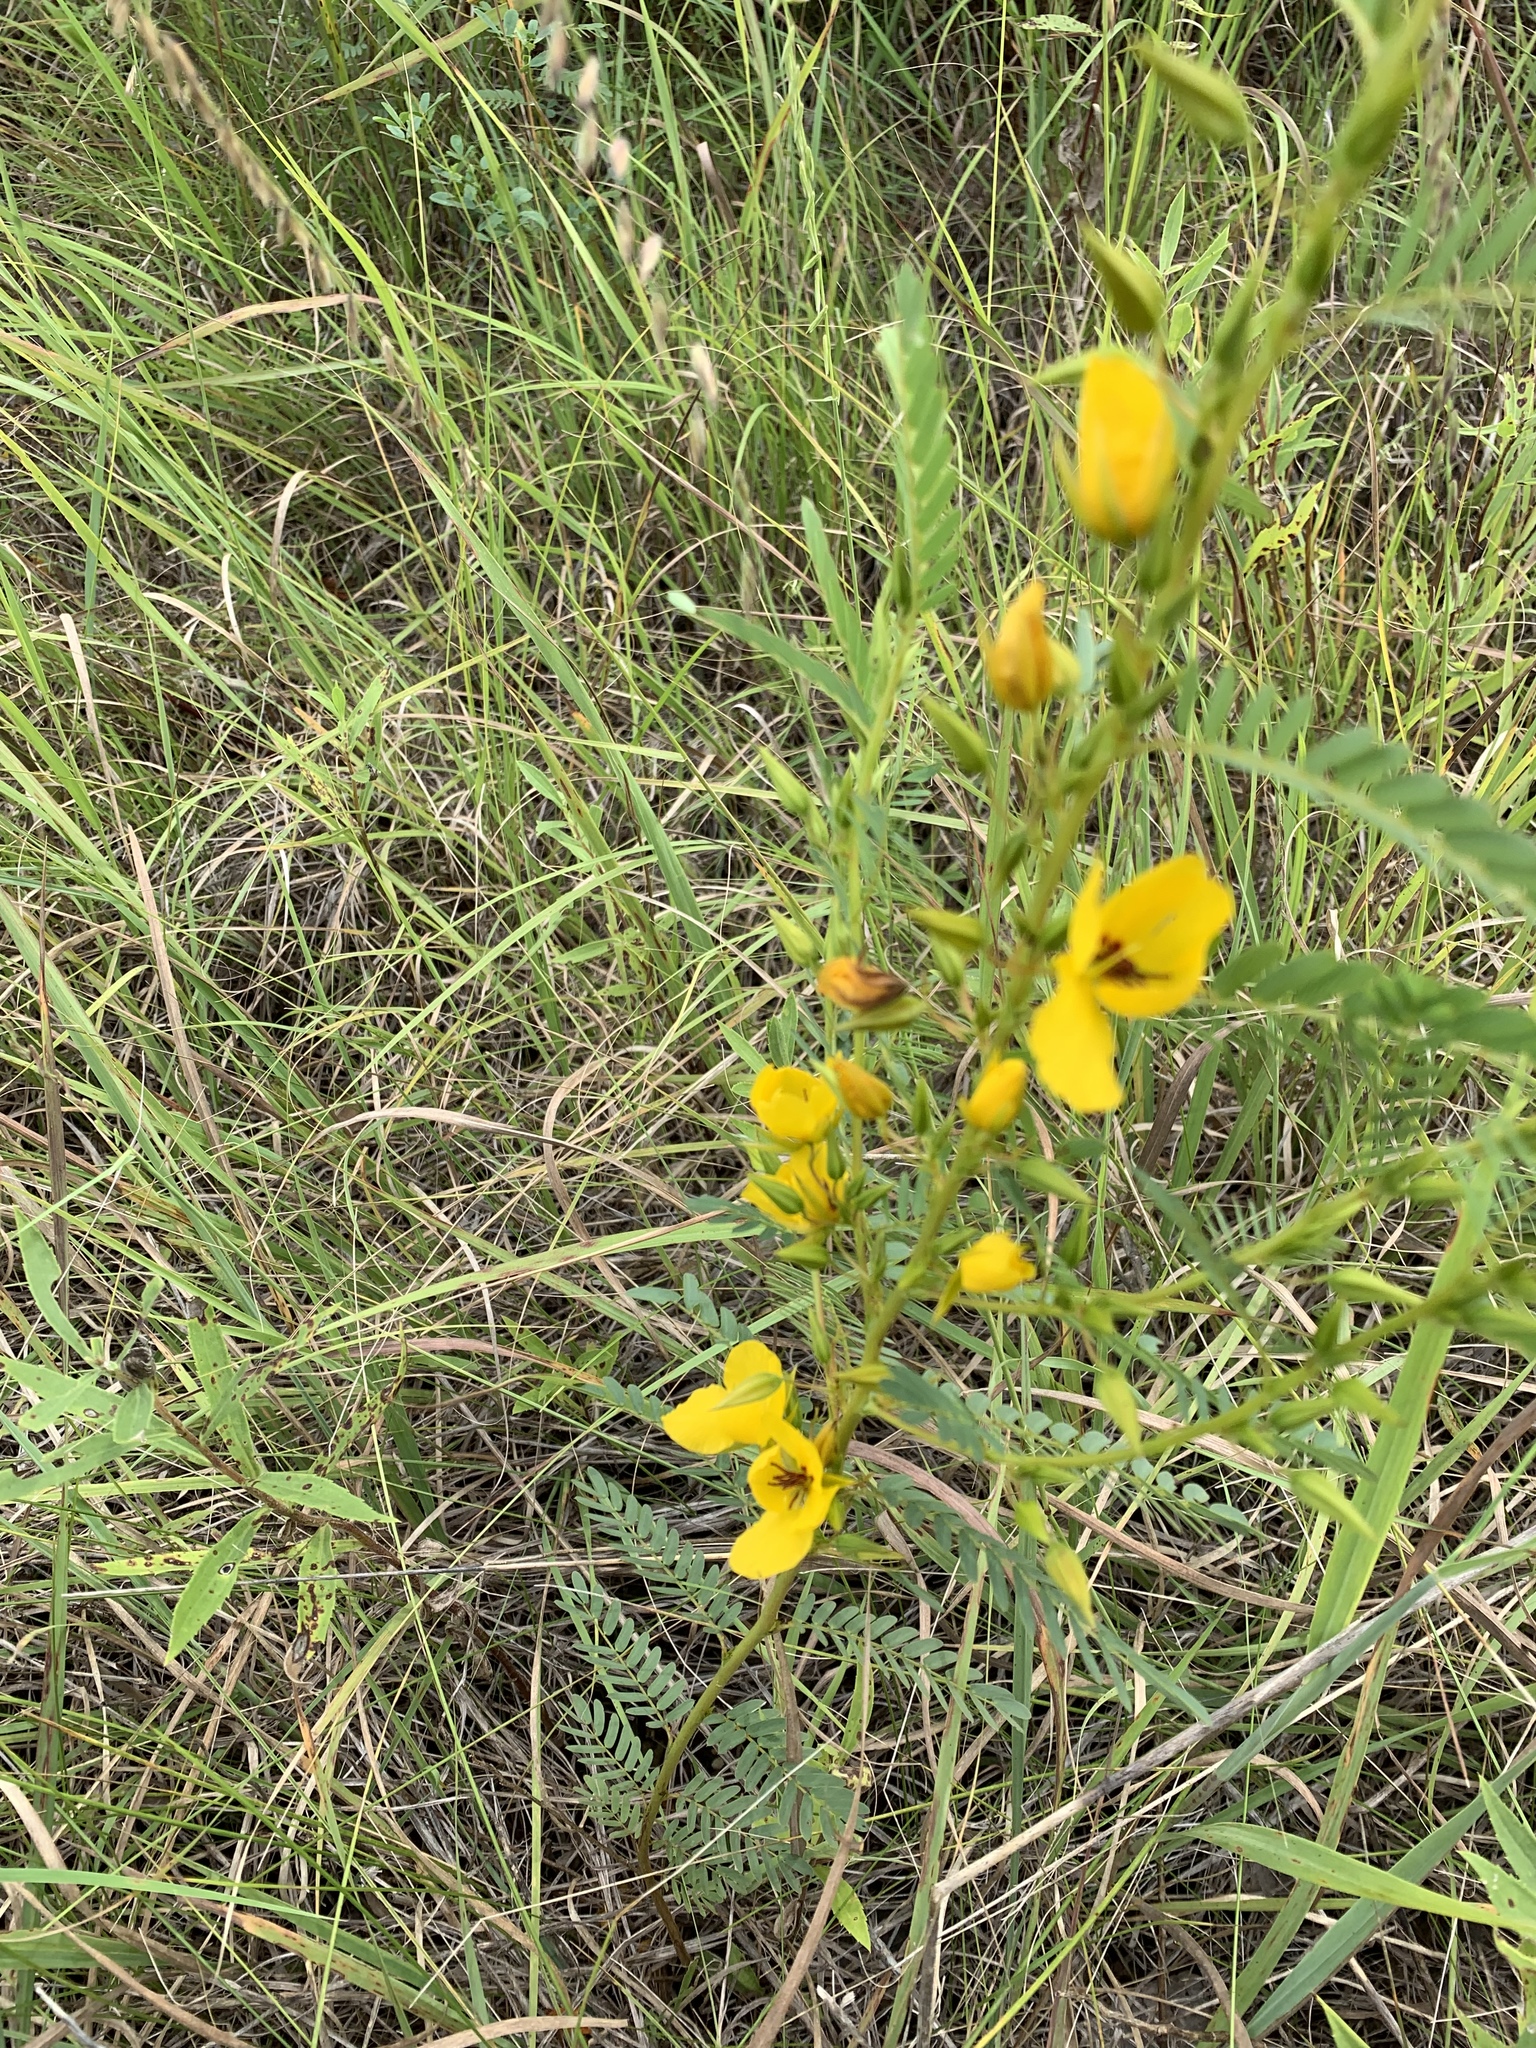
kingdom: Plantae
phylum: Tracheophyta
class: Magnoliopsida
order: Fabales
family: Fabaceae
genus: Chamaecrista
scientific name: Chamaecrista fasciculata
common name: Golden cassia
